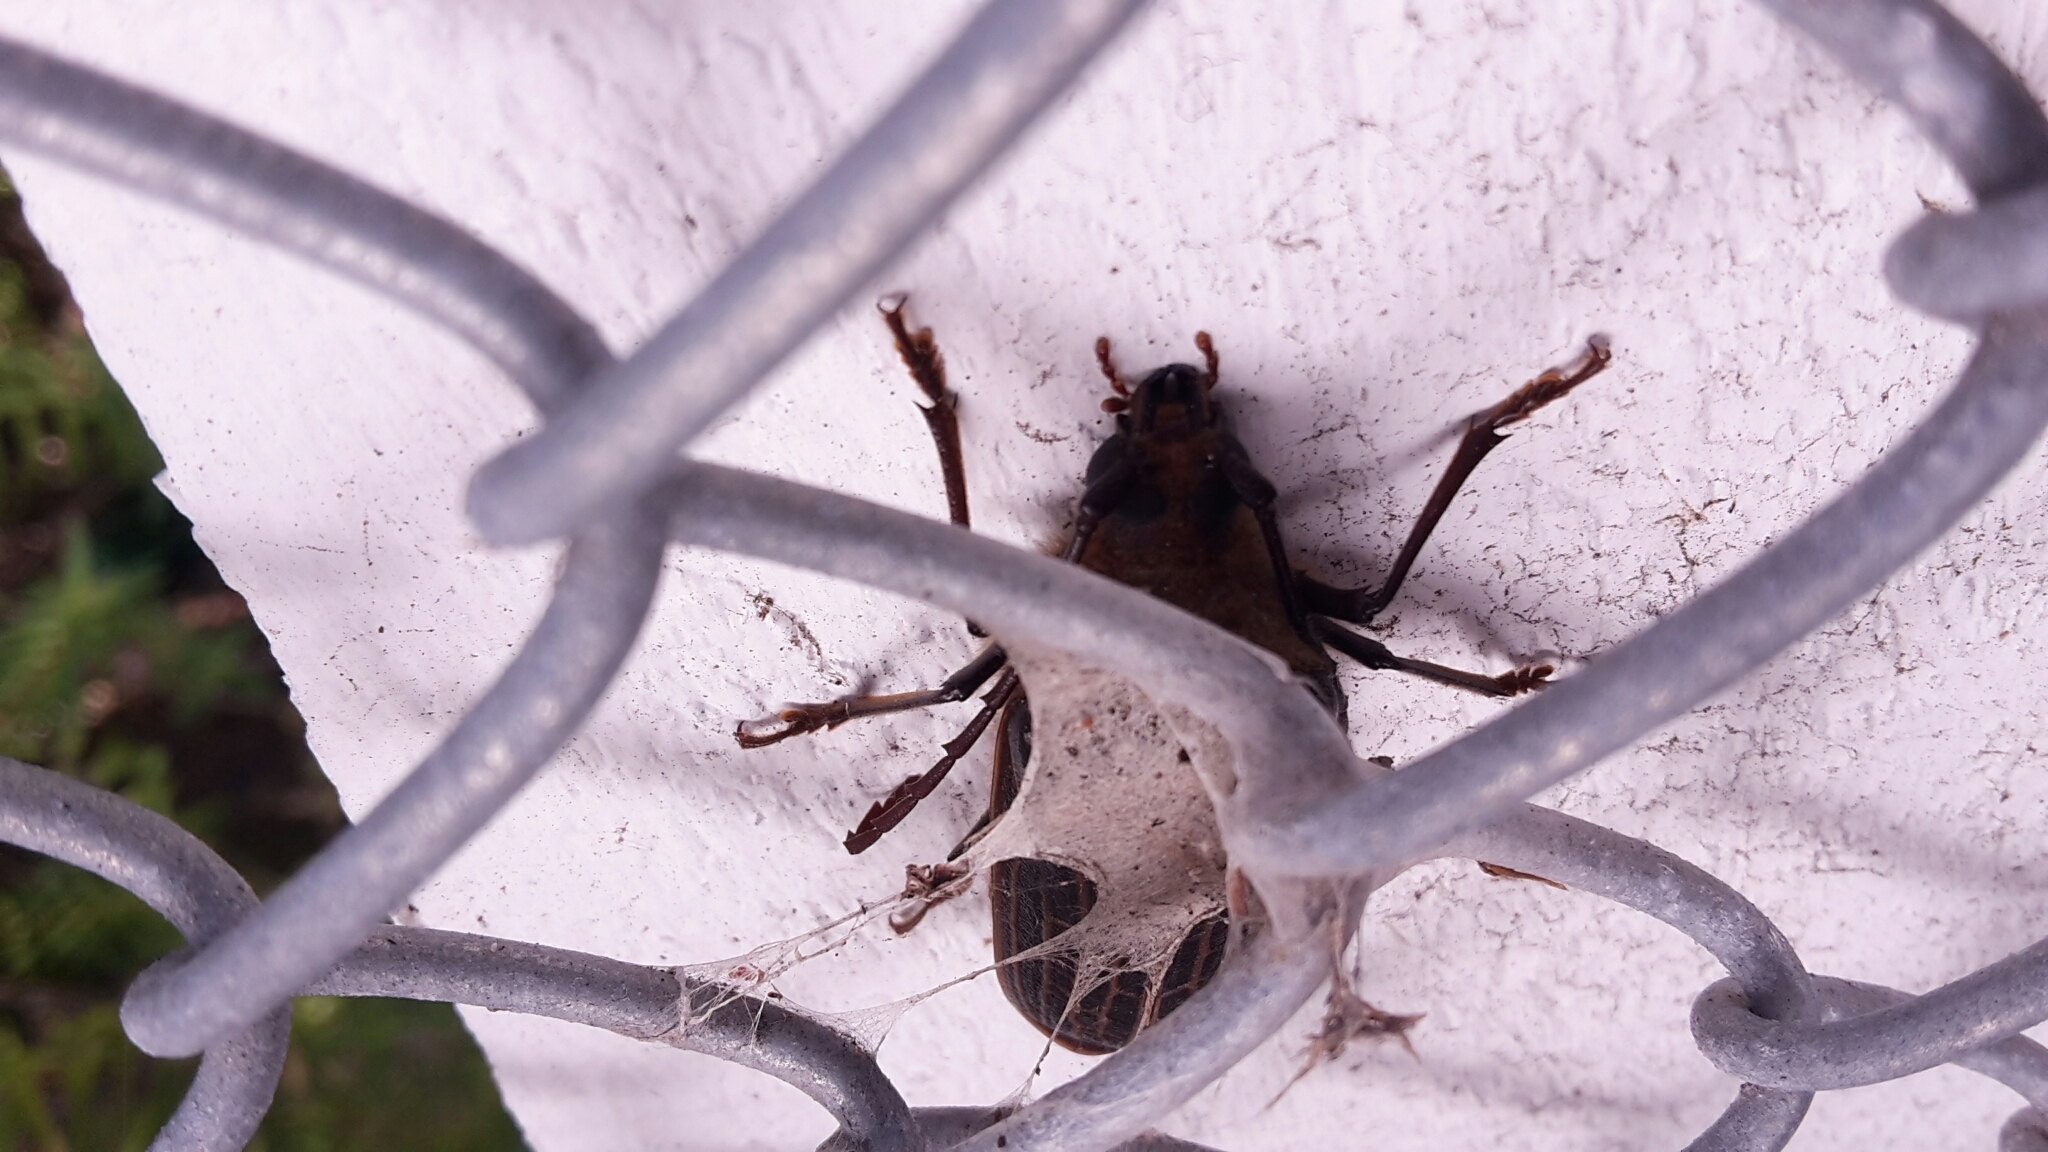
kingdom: Animalia
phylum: Arthropoda
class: Insecta
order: Coleoptera
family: Cerambycidae
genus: Prionoplus
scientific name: Prionoplus reticularis
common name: Huhu beetle
